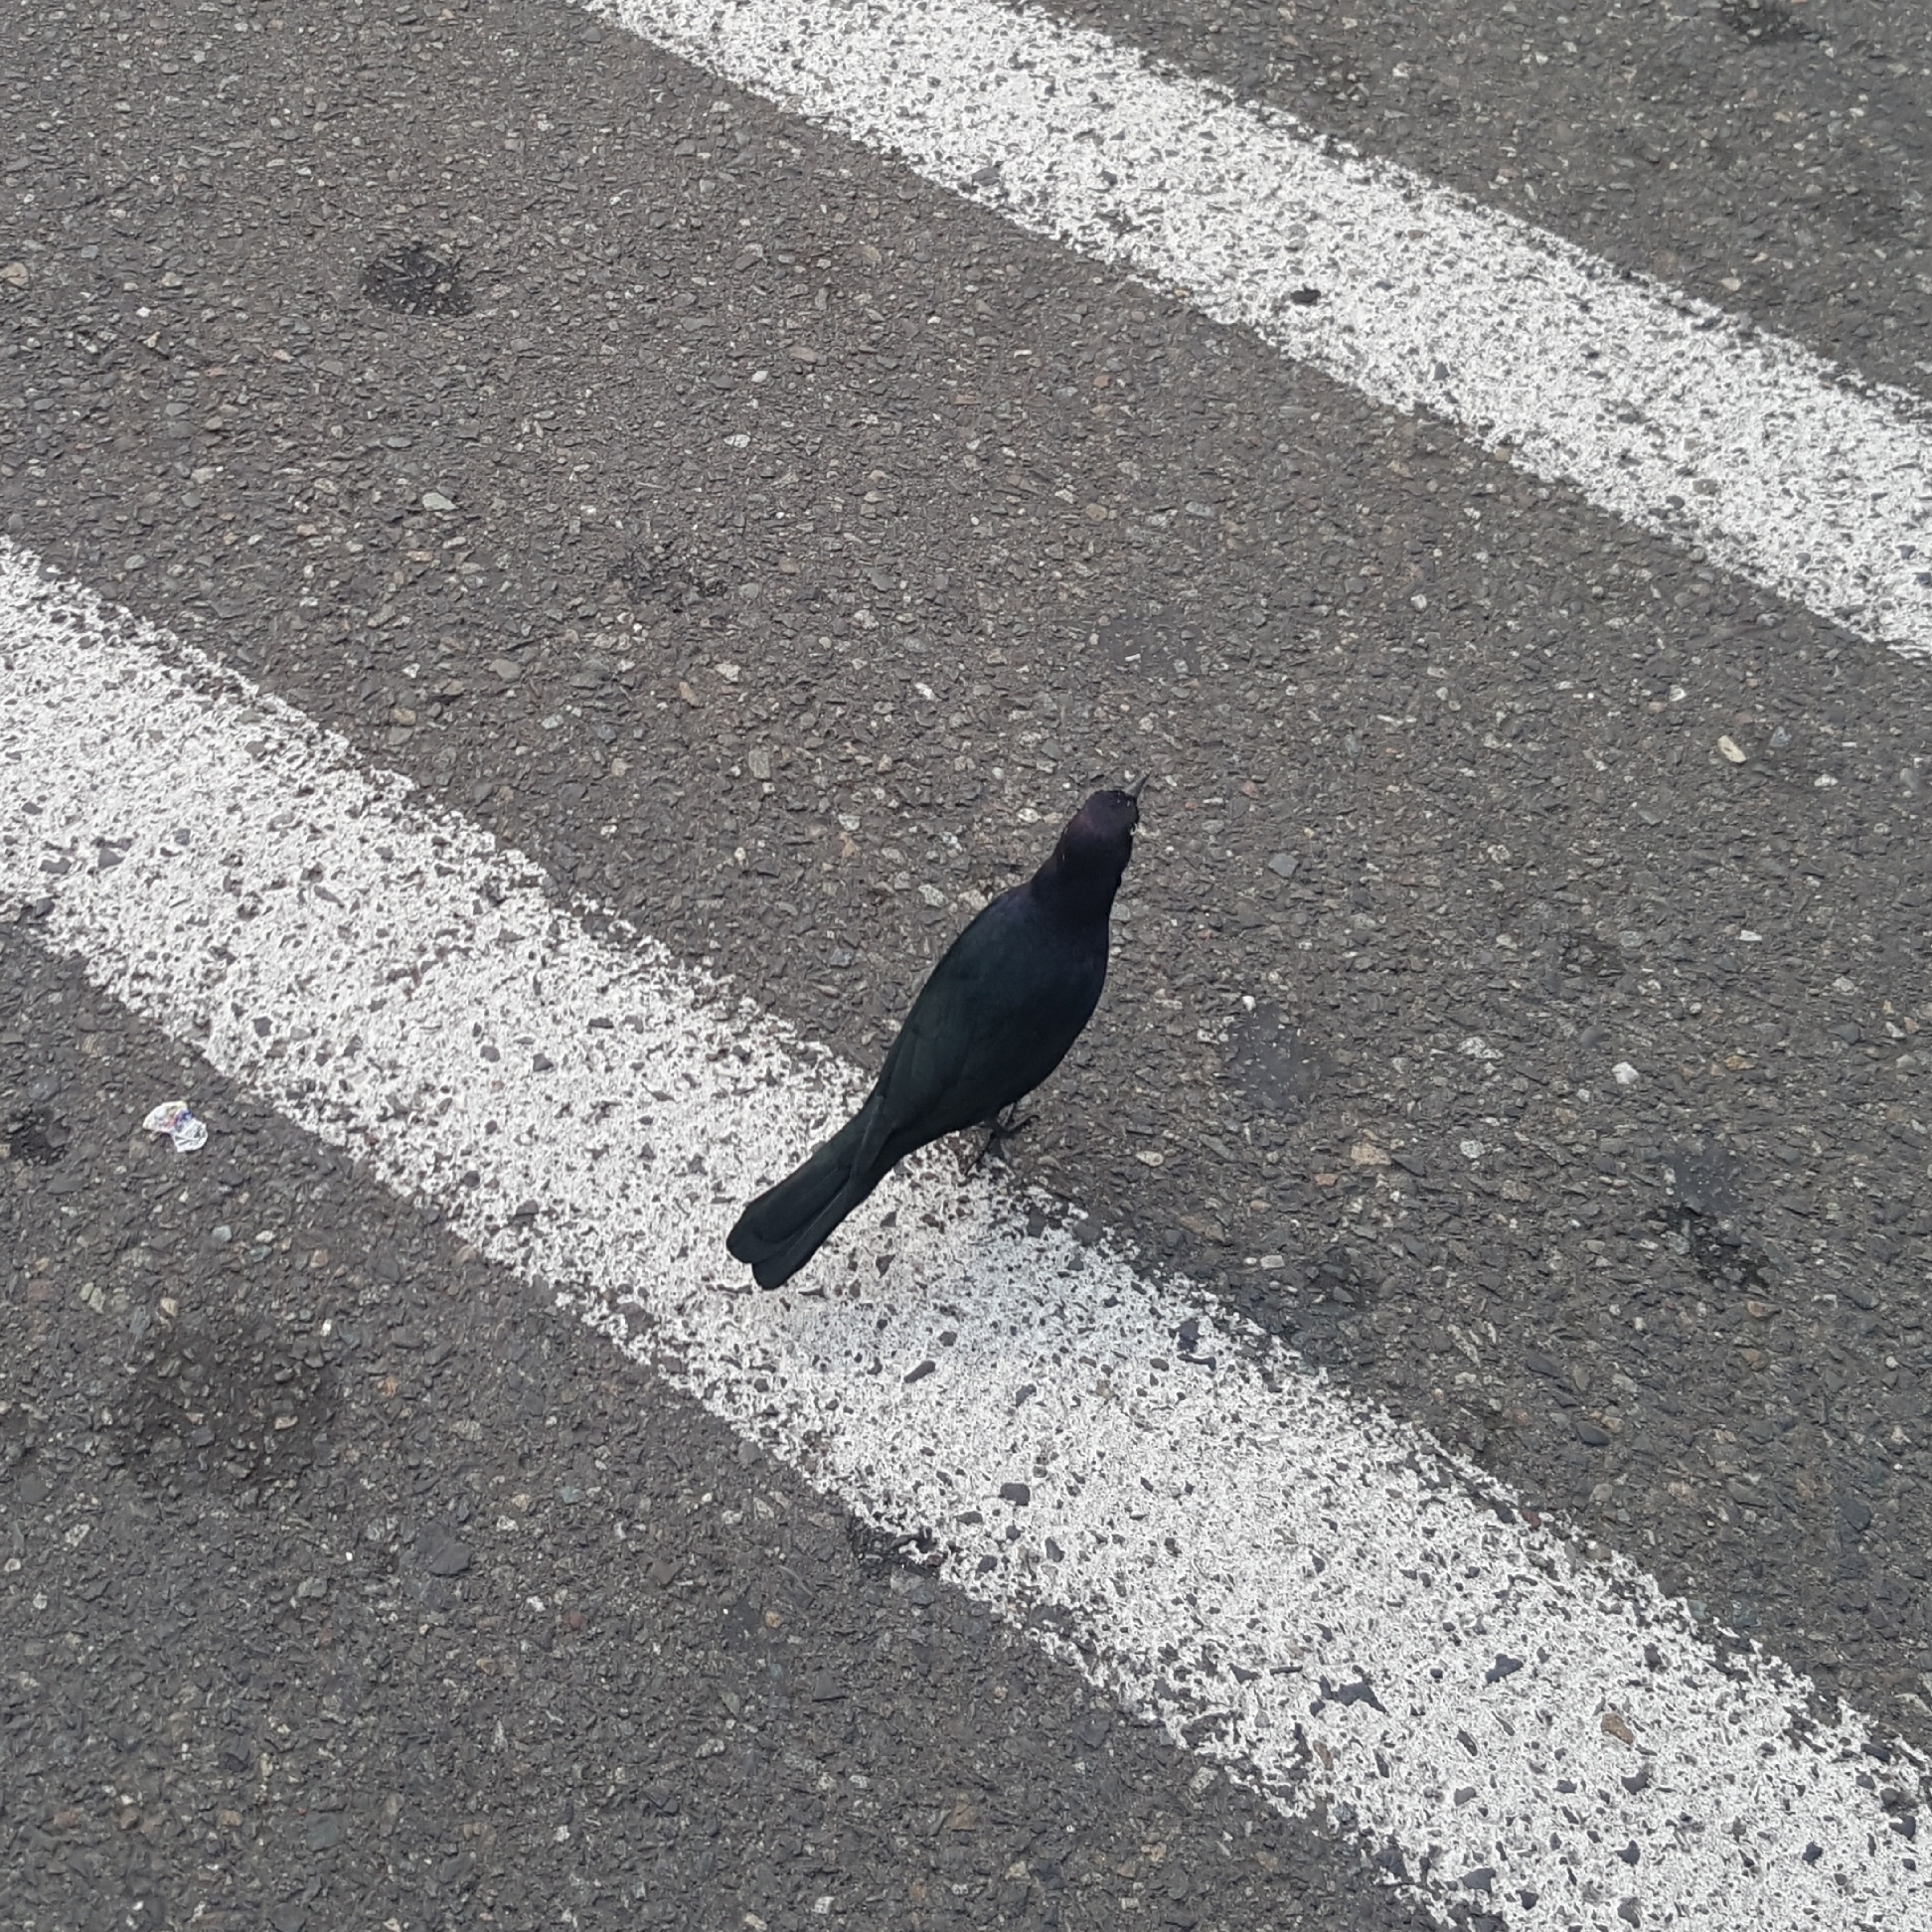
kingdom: Animalia
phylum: Chordata
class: Aves
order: Passeriformes
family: Icteridae
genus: Euphagus
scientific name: Euphagus cyanocephalus
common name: Brewer's blackbird
